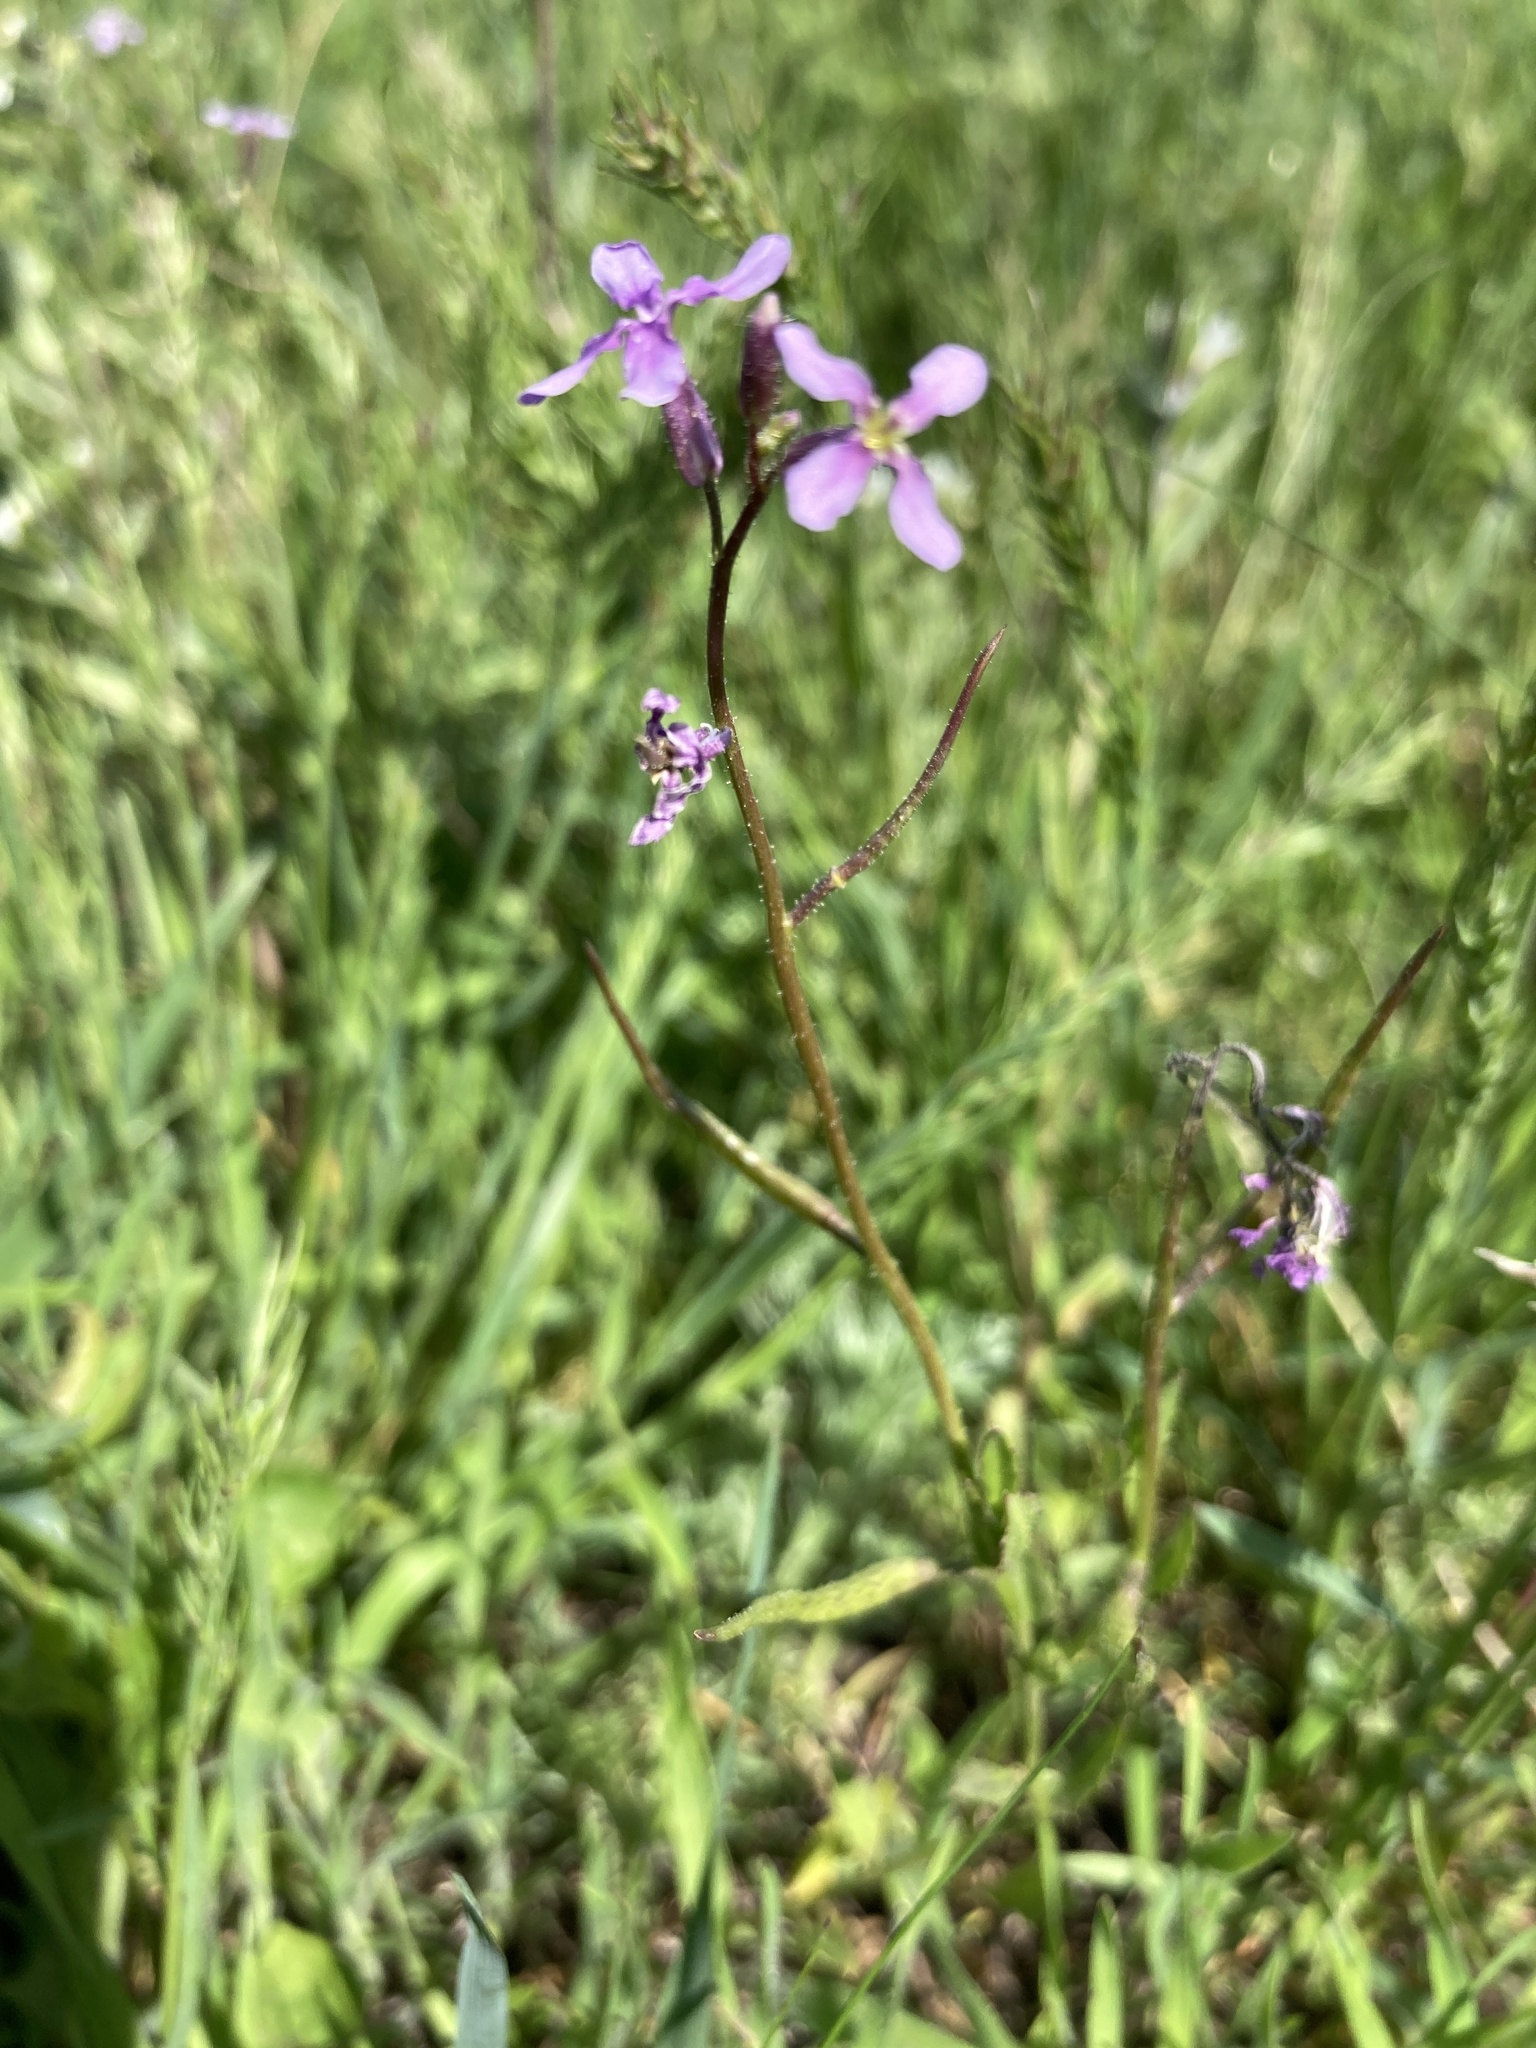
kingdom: Plantae
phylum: Tracheophyta
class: Magnoliopsida
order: Brassicales
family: Brassicaceae
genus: Chorispora
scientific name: Chorispora tenella
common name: Crossflower
